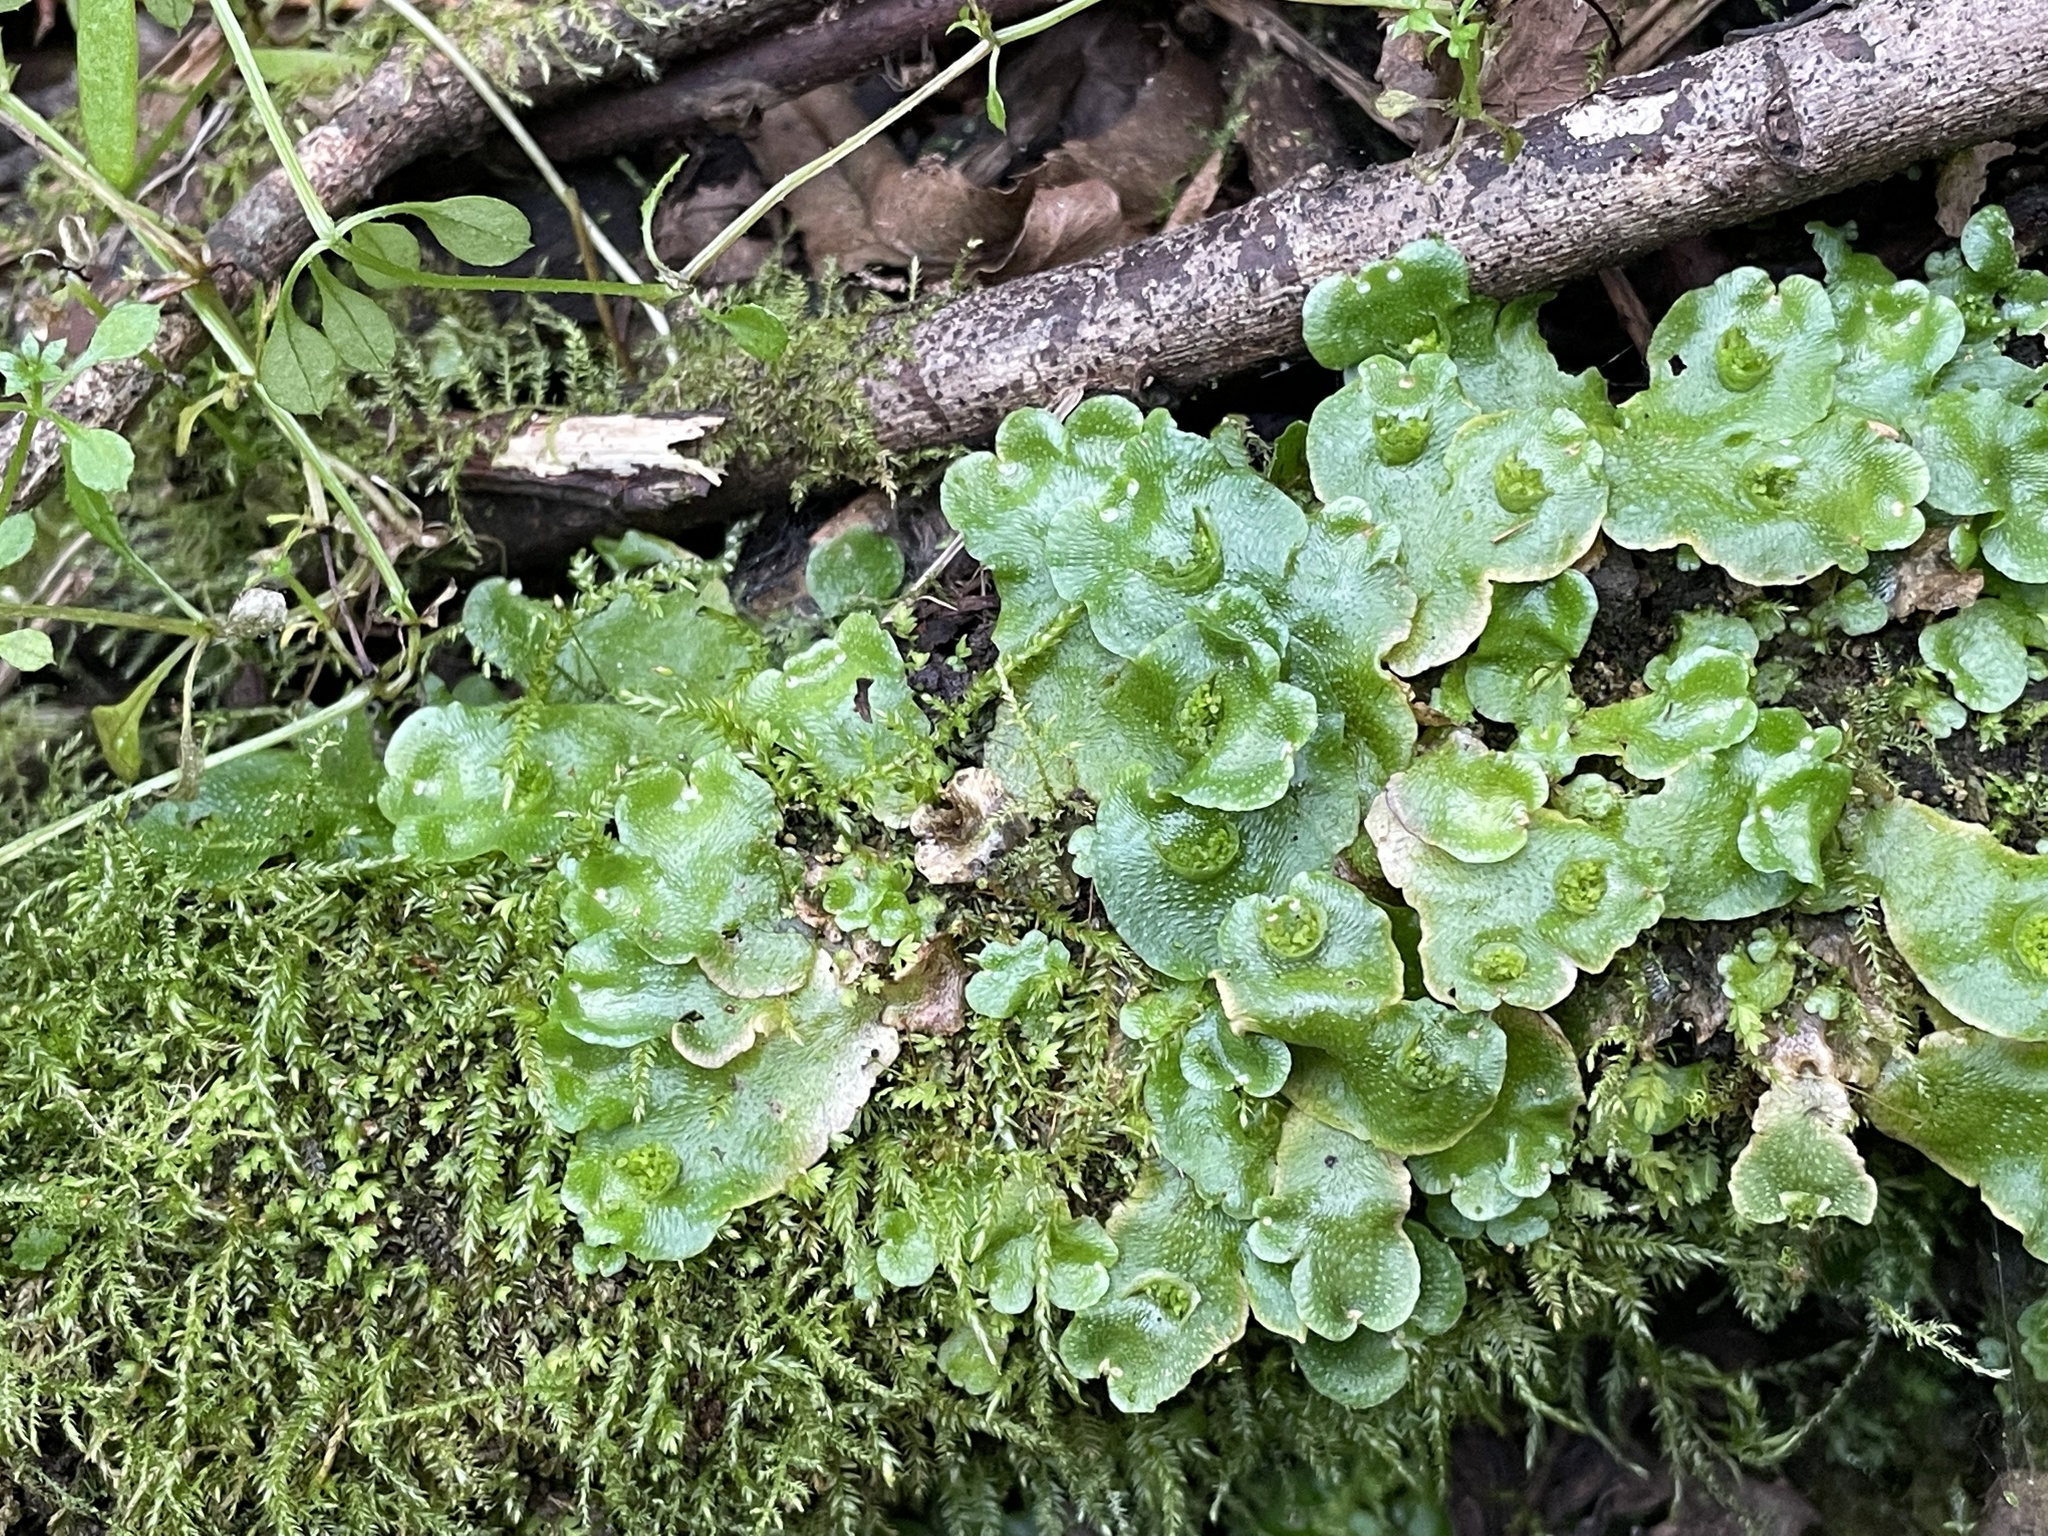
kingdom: Plantae
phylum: Marchantiophyta
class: Marchantiopsida
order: Lunulariales
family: Lunulariaceae
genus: Lunularia
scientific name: Lunularia cruciata
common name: Crescent-cup liverwort
